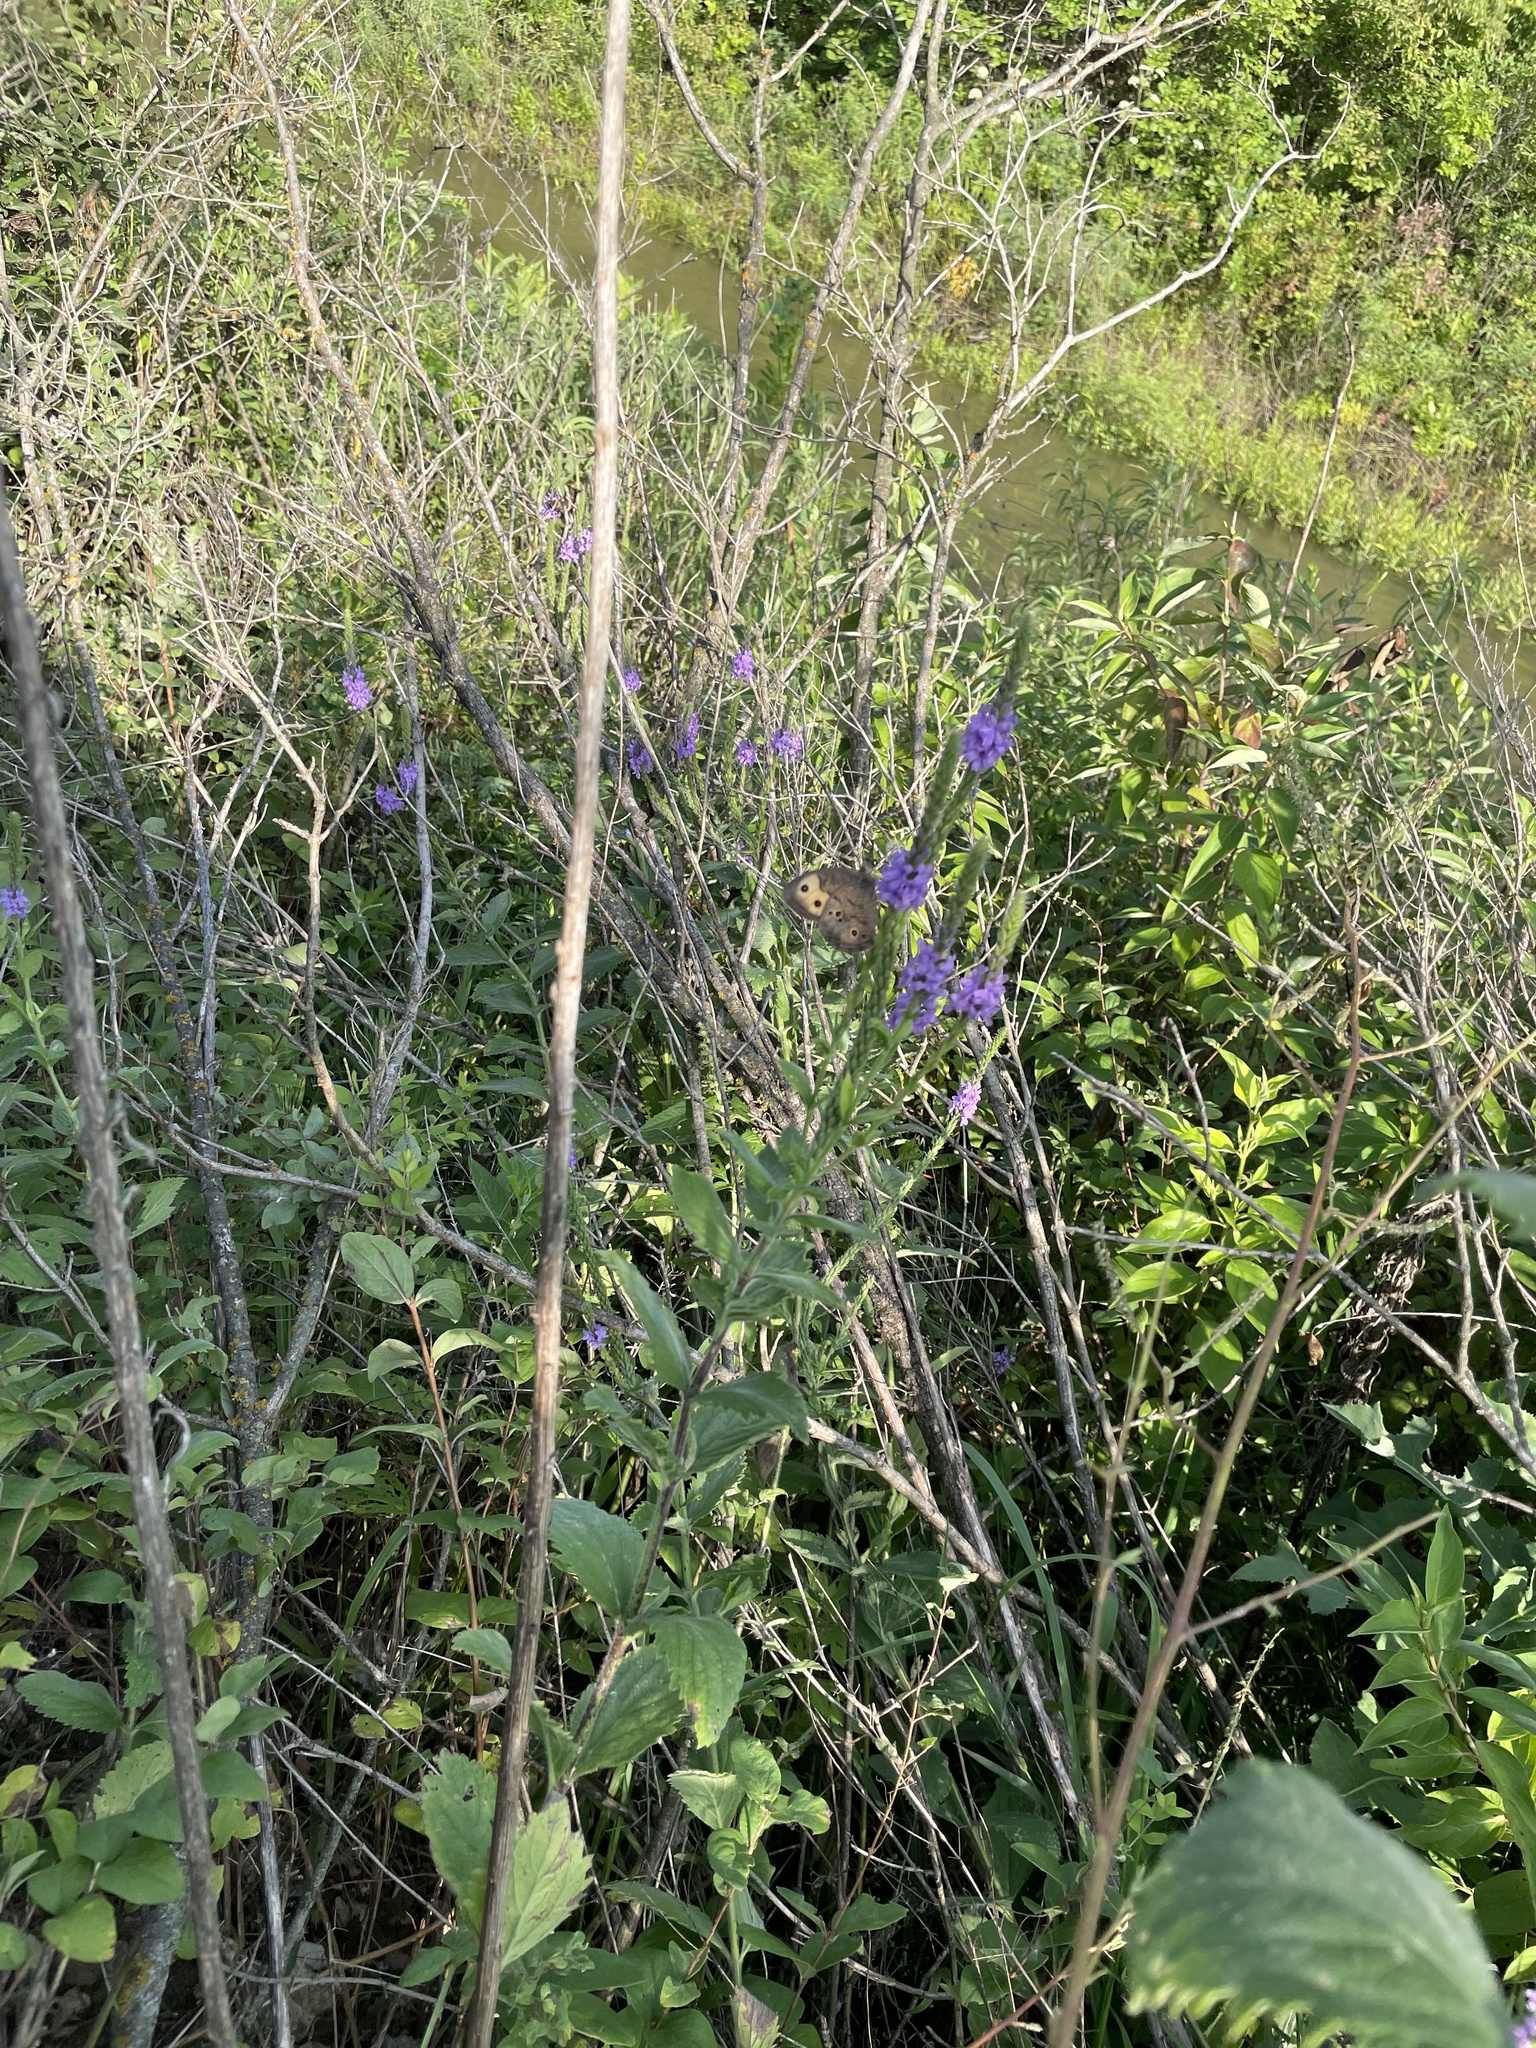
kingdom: Animalia
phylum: Arthropoda
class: Insecta
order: Lepidoptera
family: Nymphalidae
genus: Cercyonis
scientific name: Cercyonis pegala
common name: Common wood-nymph
